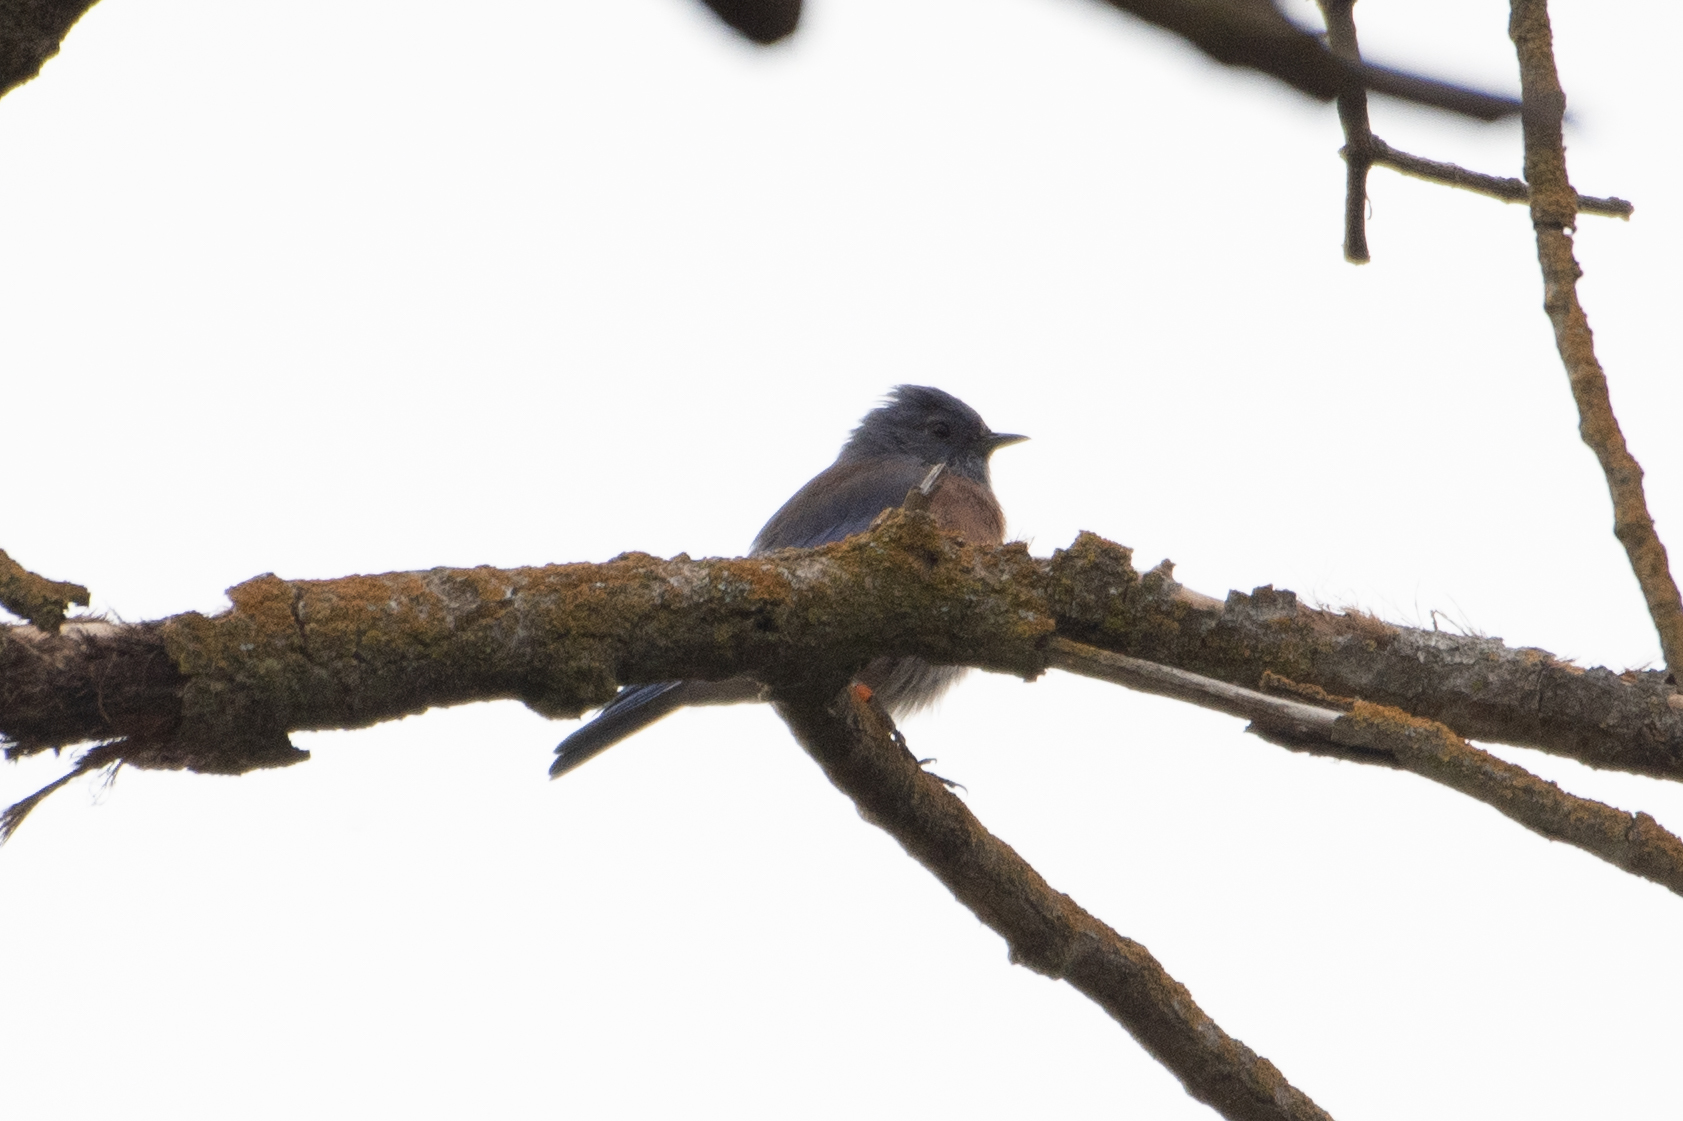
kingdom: Animalia
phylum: Chordata
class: Aves
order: Passeriformes
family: Turdidae
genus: Sialia
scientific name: Sialia mexicana
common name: Western bluebird
